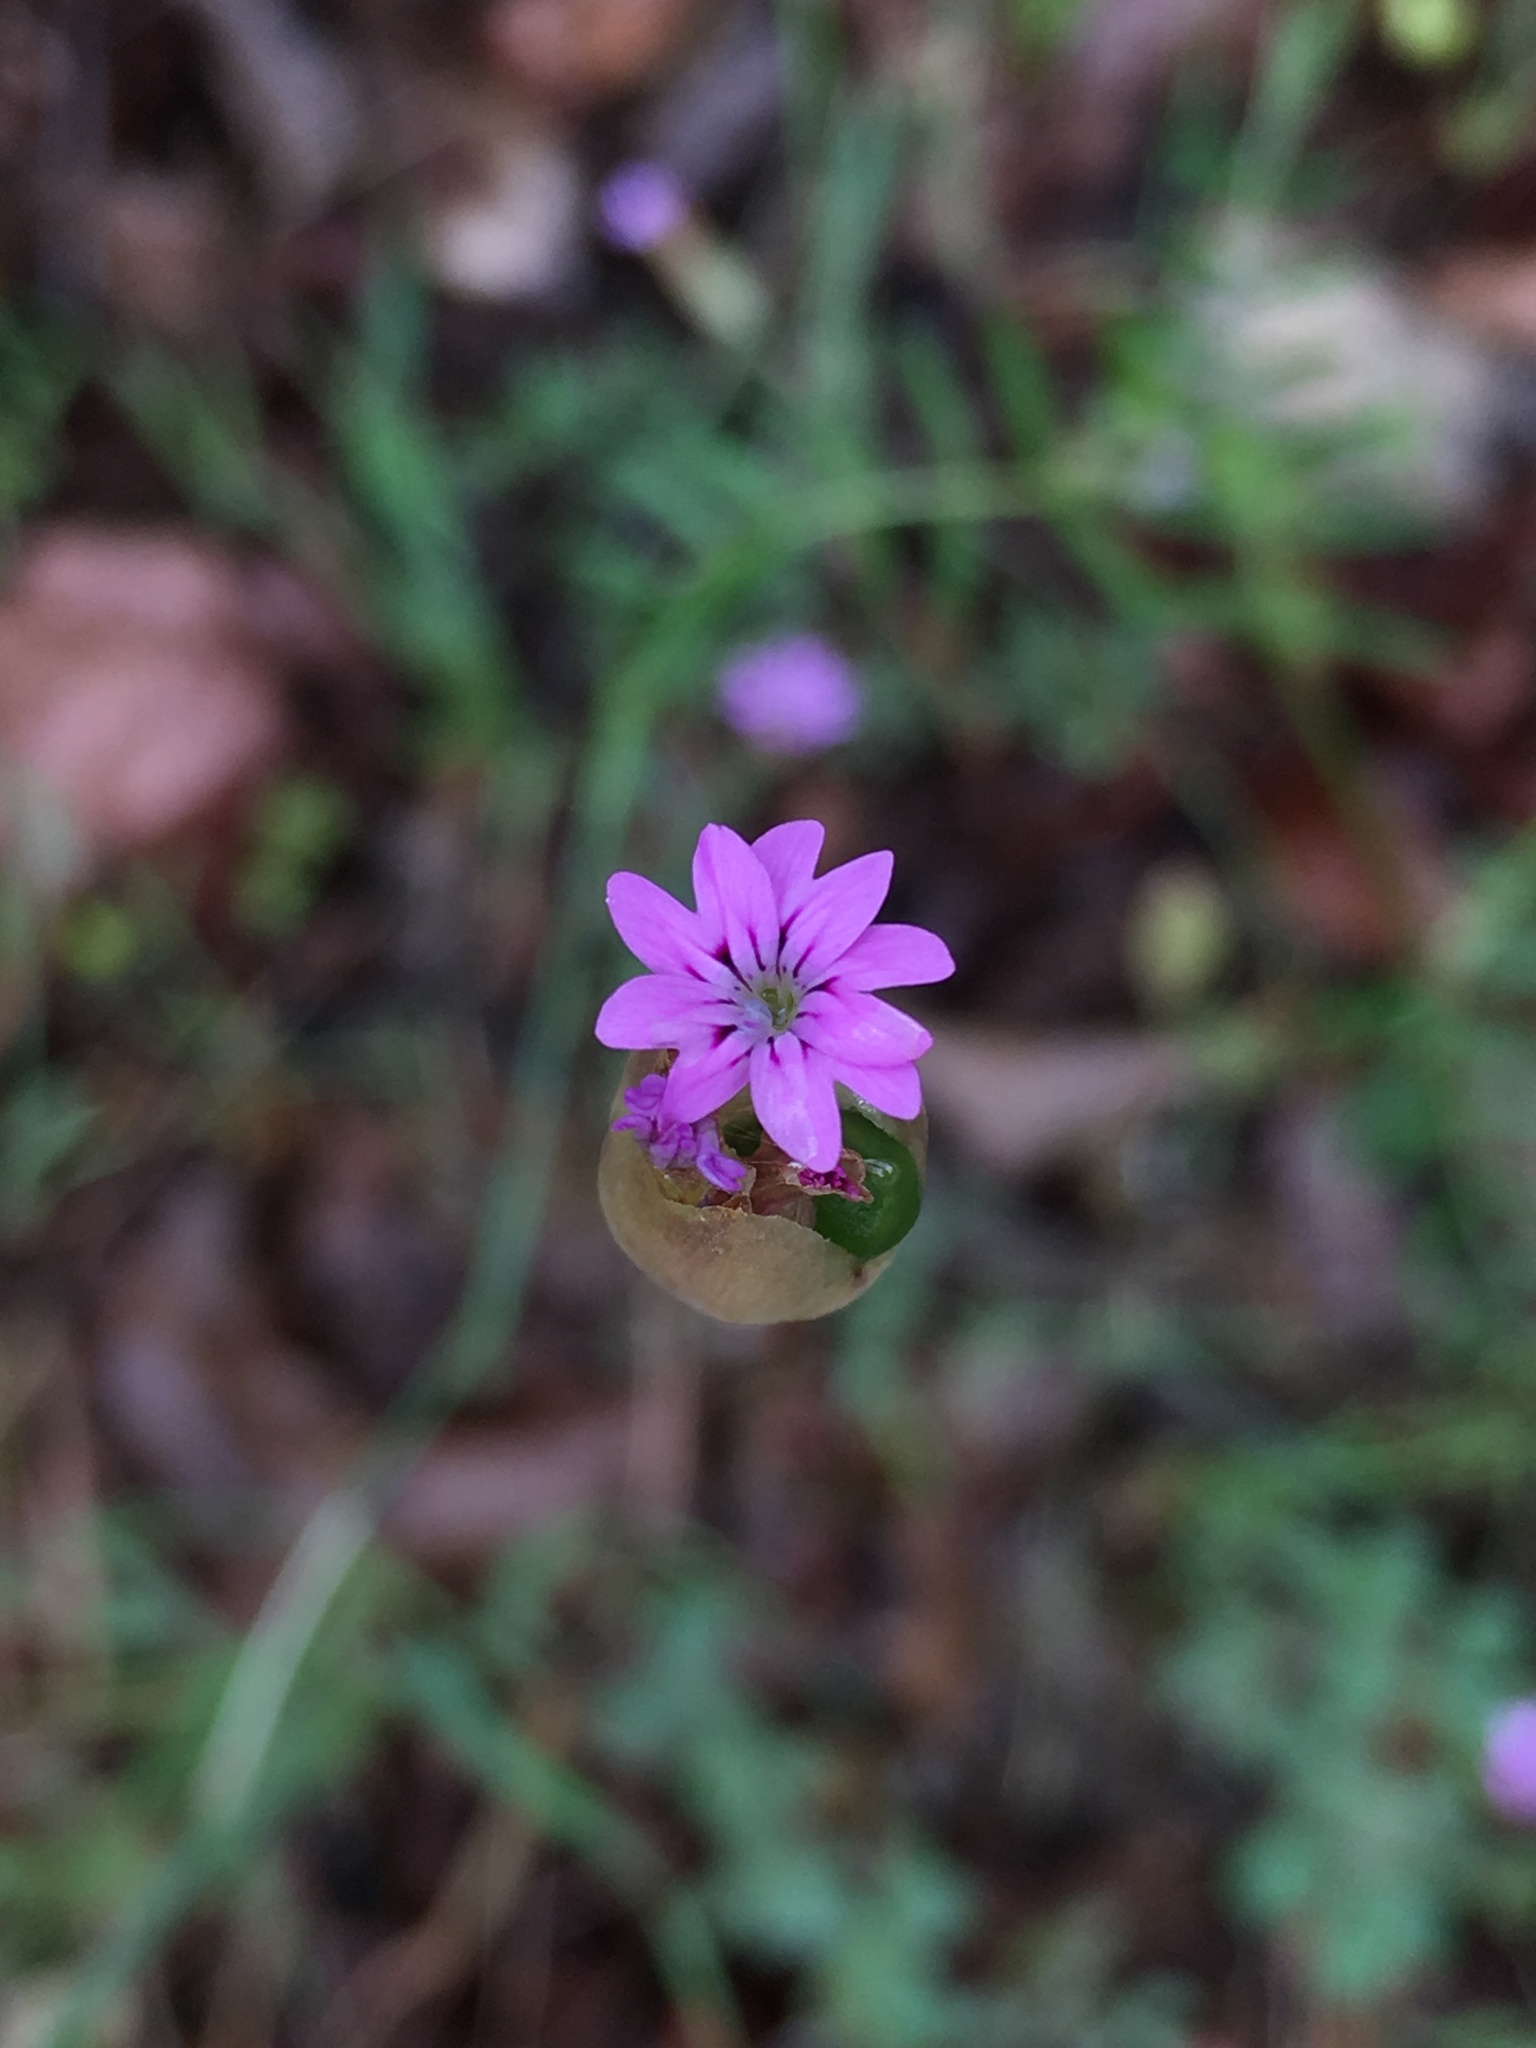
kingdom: Plantae
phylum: Tracheophyta
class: Magnoliopsida
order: Caryophyllales
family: Caryophyllaceae
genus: Petrorhagia
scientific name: Petrorhagia dubia
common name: Hairypink
